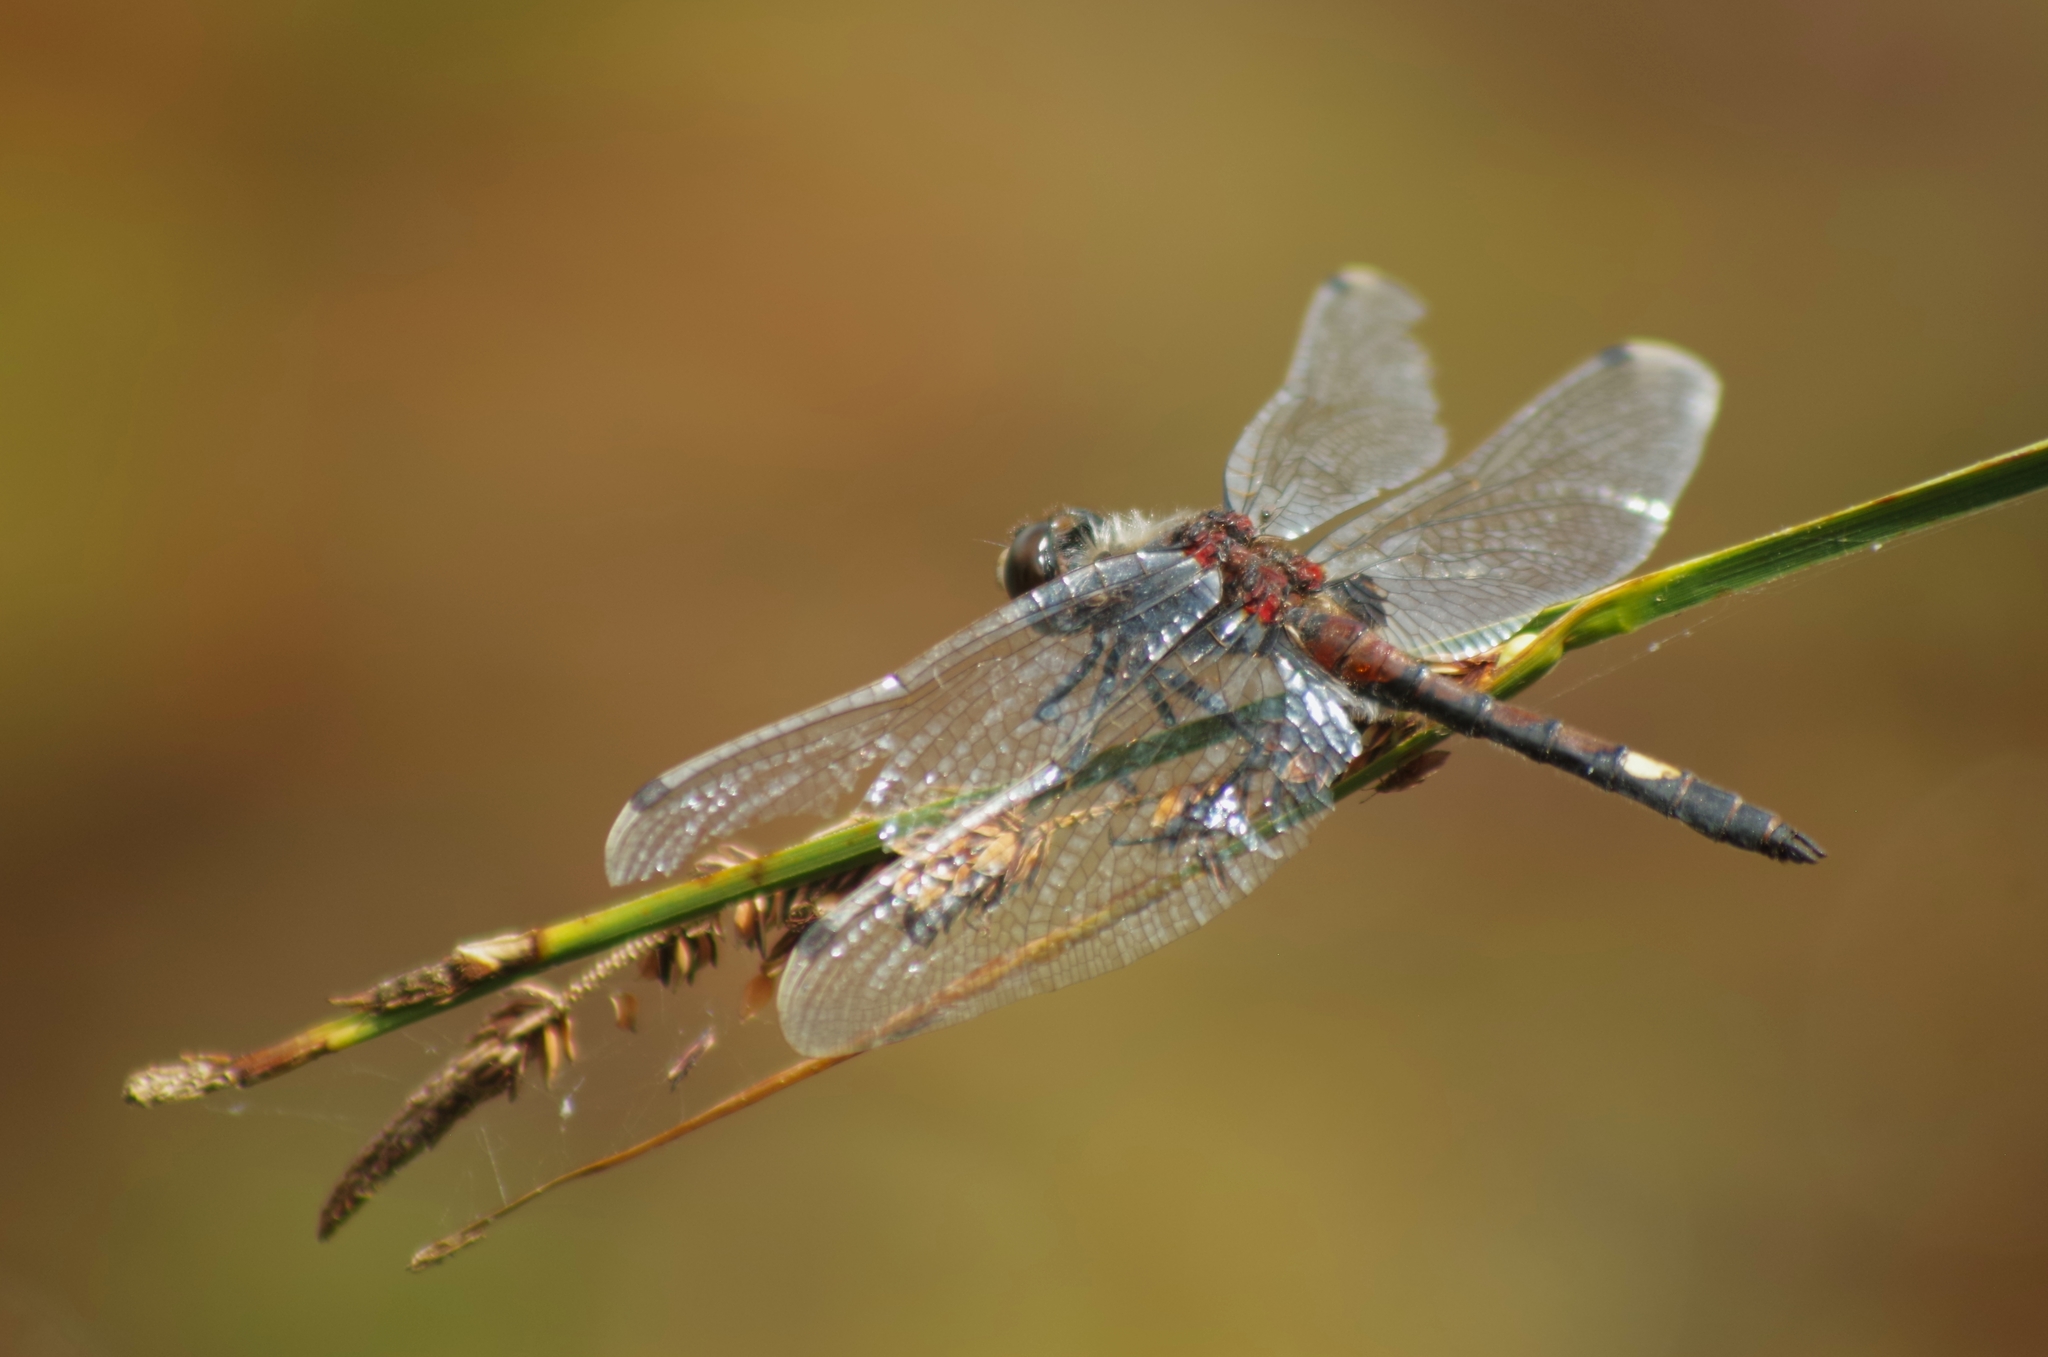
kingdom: Animalia
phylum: Arthropoda
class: Insecta
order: Odonata
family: Libellulidae
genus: Leucorrhinia
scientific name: Leucorrhinia pectoralis
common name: Yellow-spotted whiteface
